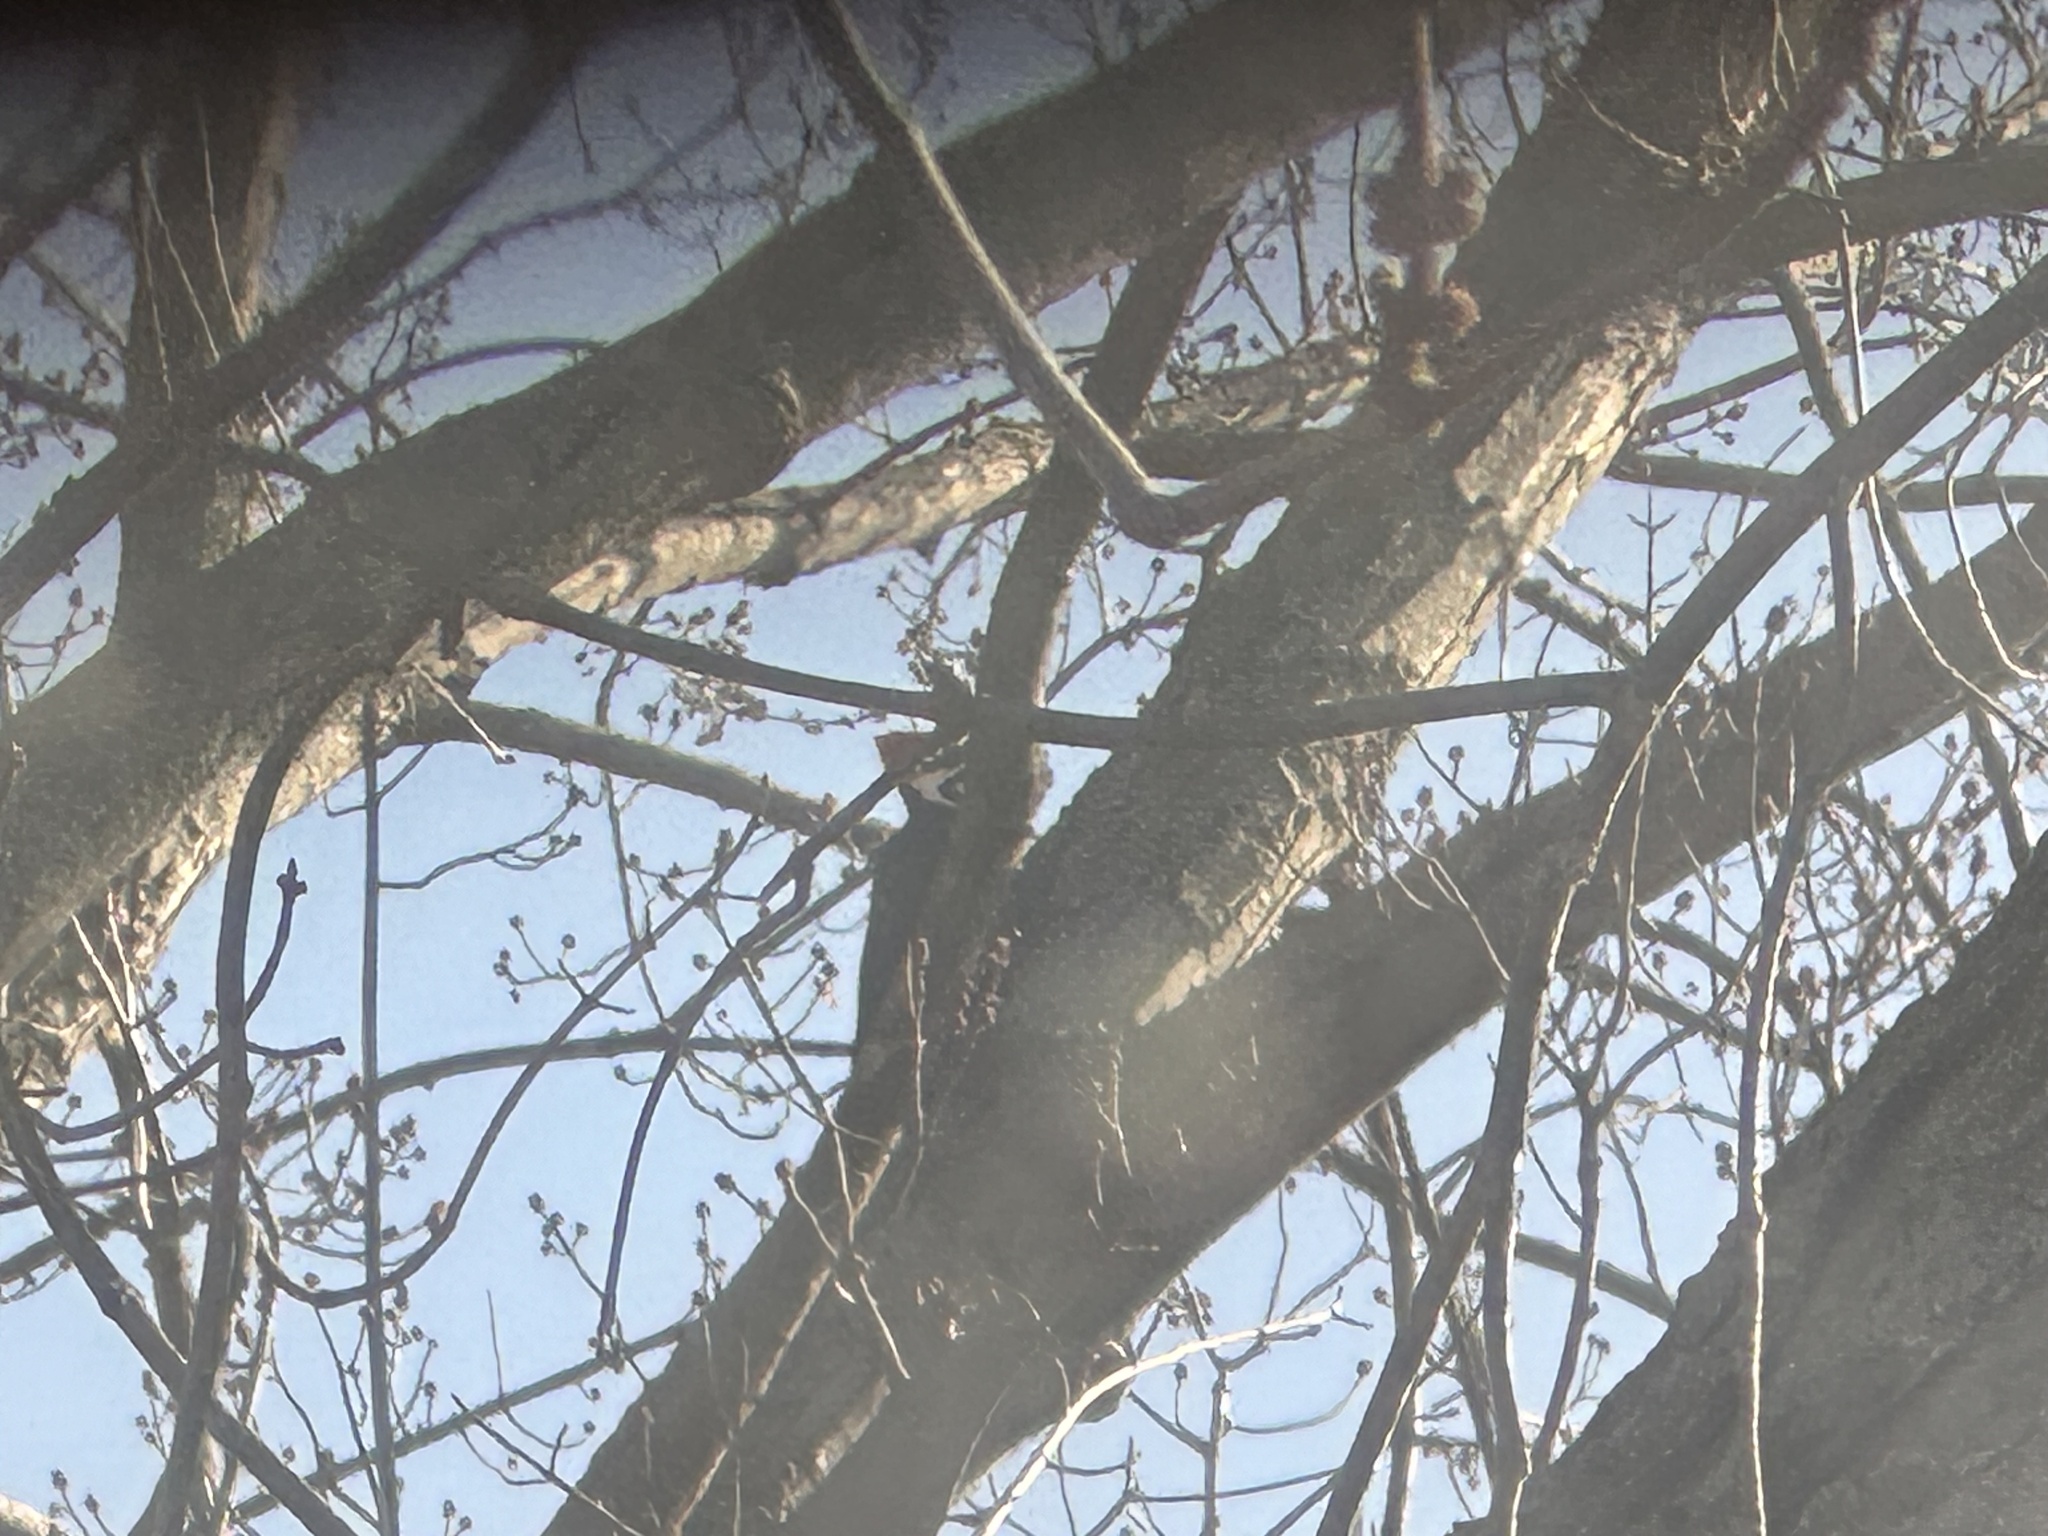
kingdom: Animalia
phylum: Chordata
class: Aves
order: Piciformes
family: Picidae
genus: Dryocopus
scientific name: Dryocopus pileatus
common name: Pileated woodpecker
